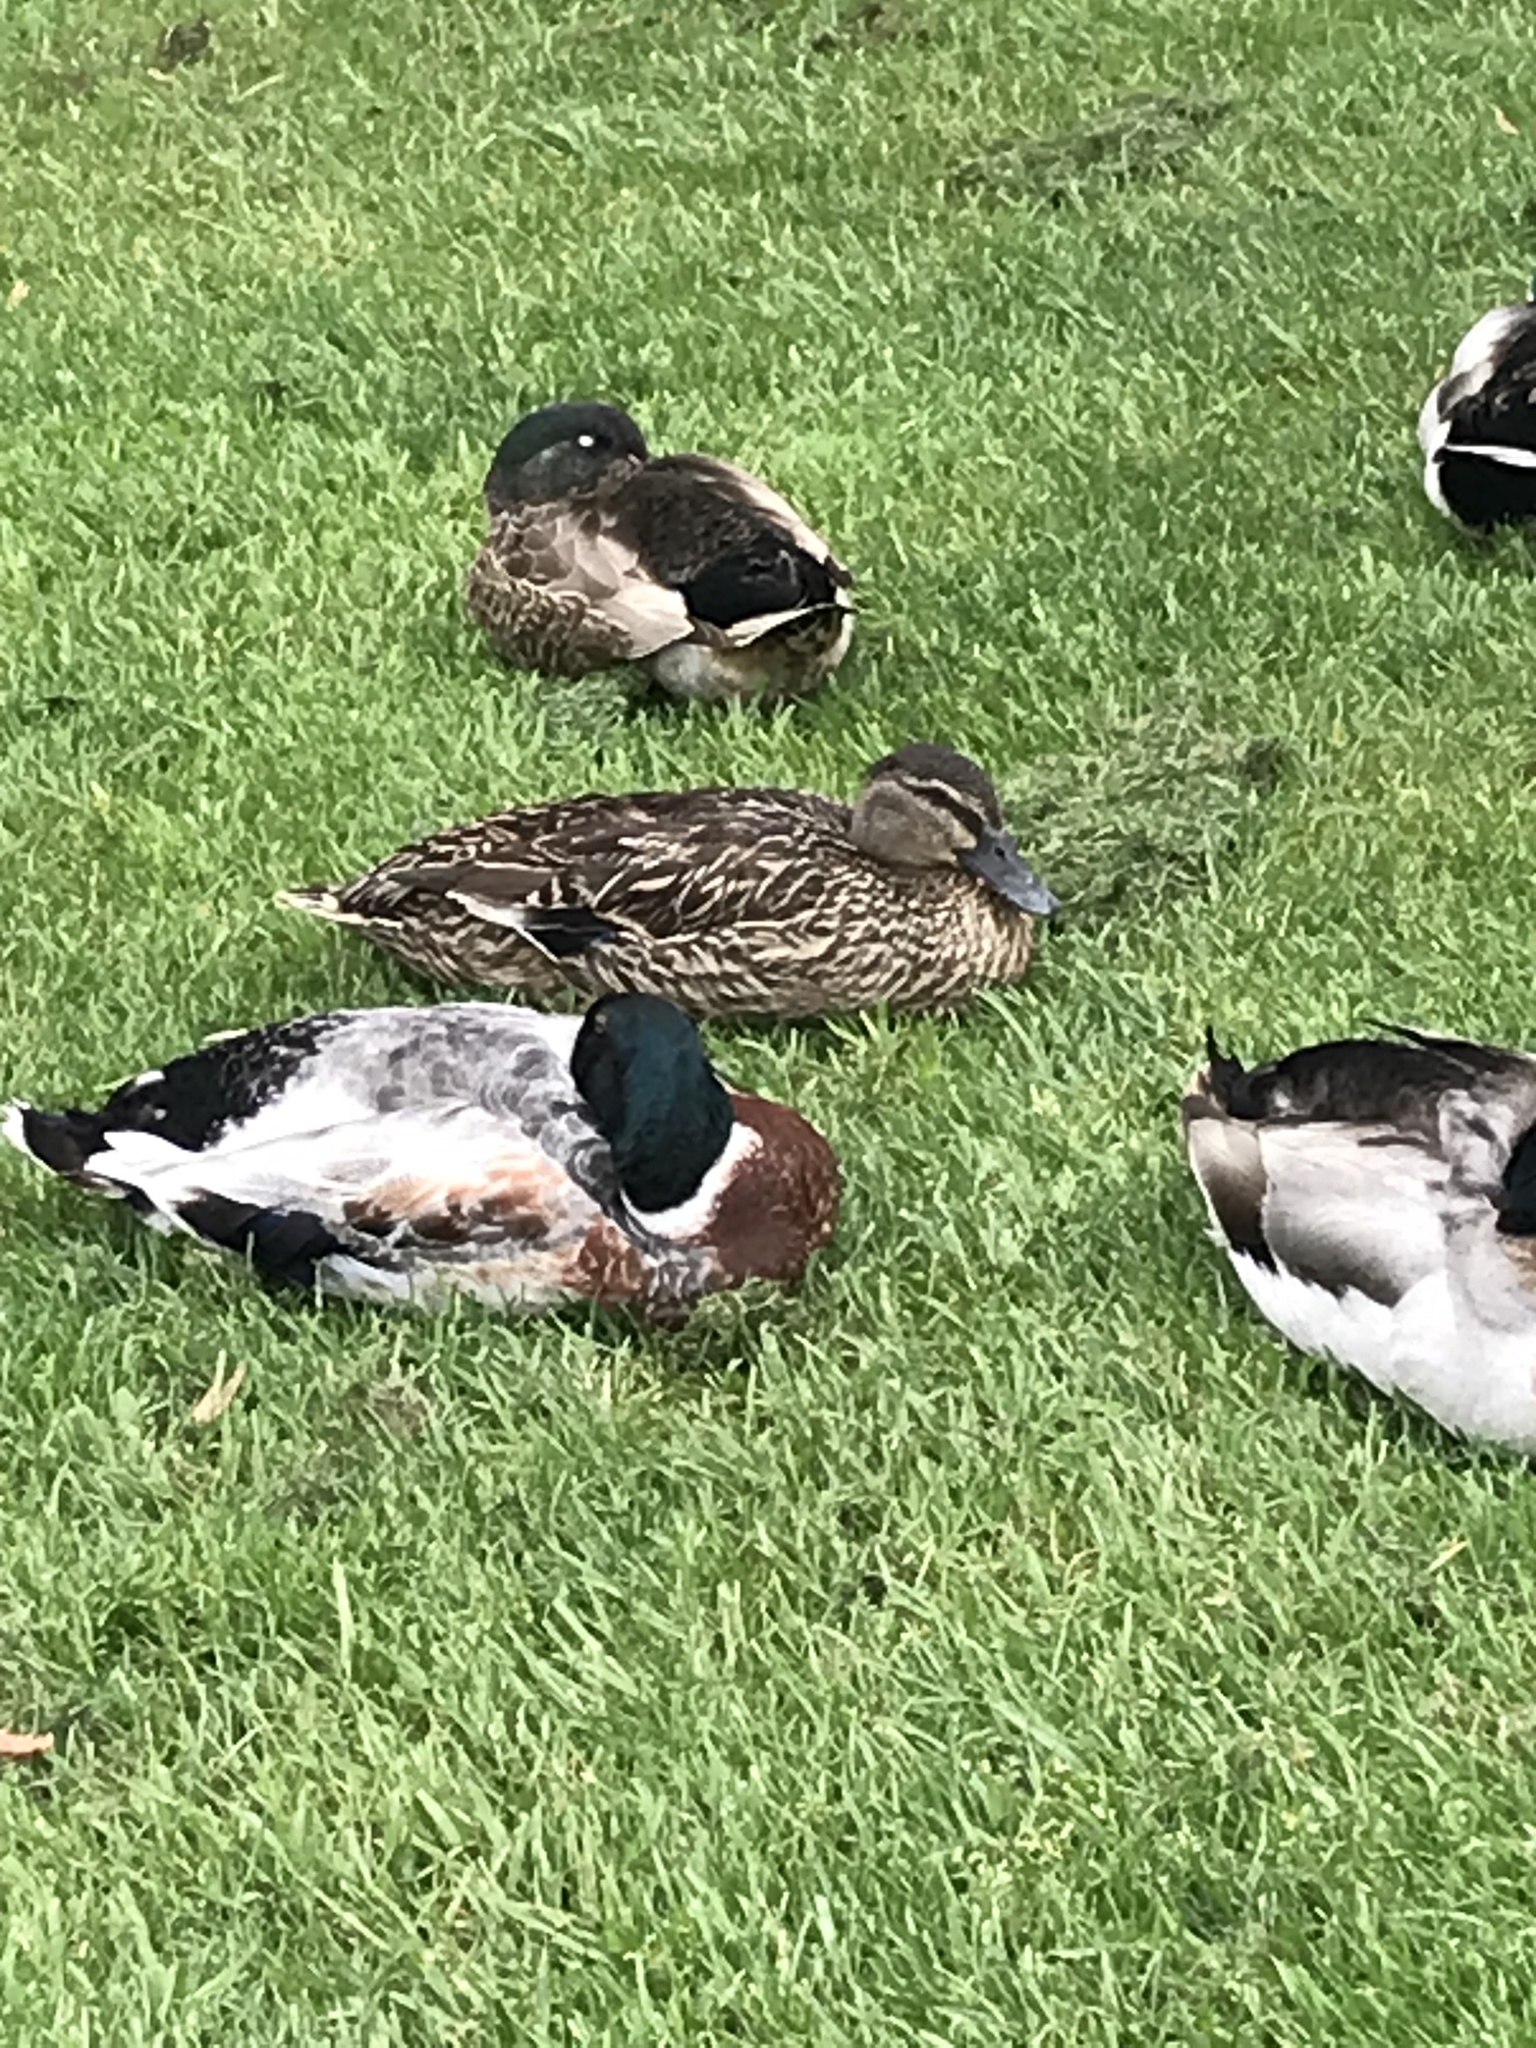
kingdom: Animalia
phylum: Chordata
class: Aves
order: Anseriformes
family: Anatidae
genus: Anas
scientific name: Anas
